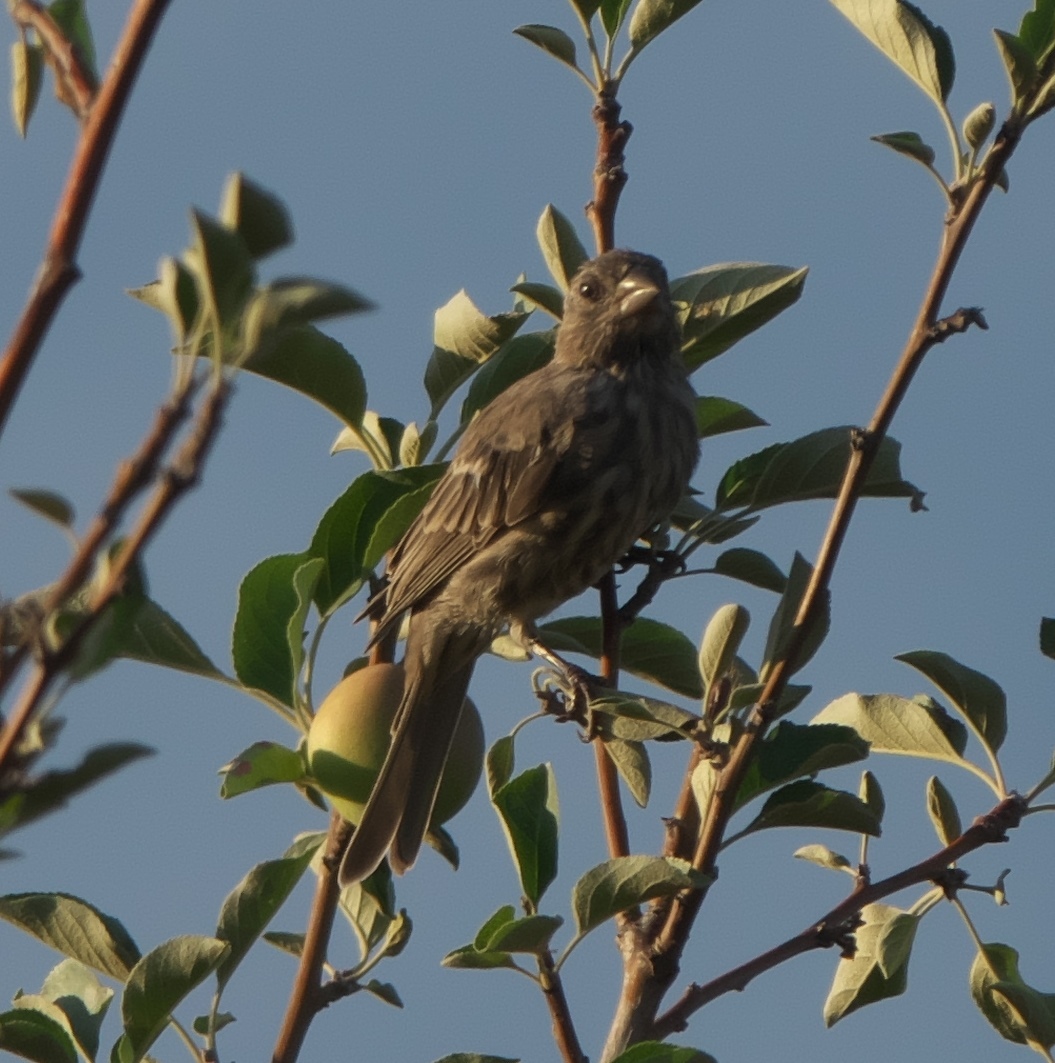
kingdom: Animalia
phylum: Chordata
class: Aves
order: Passeriformes
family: Fringillidae
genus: Haemorhous
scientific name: Haemorhous mexicanus
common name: House finch
